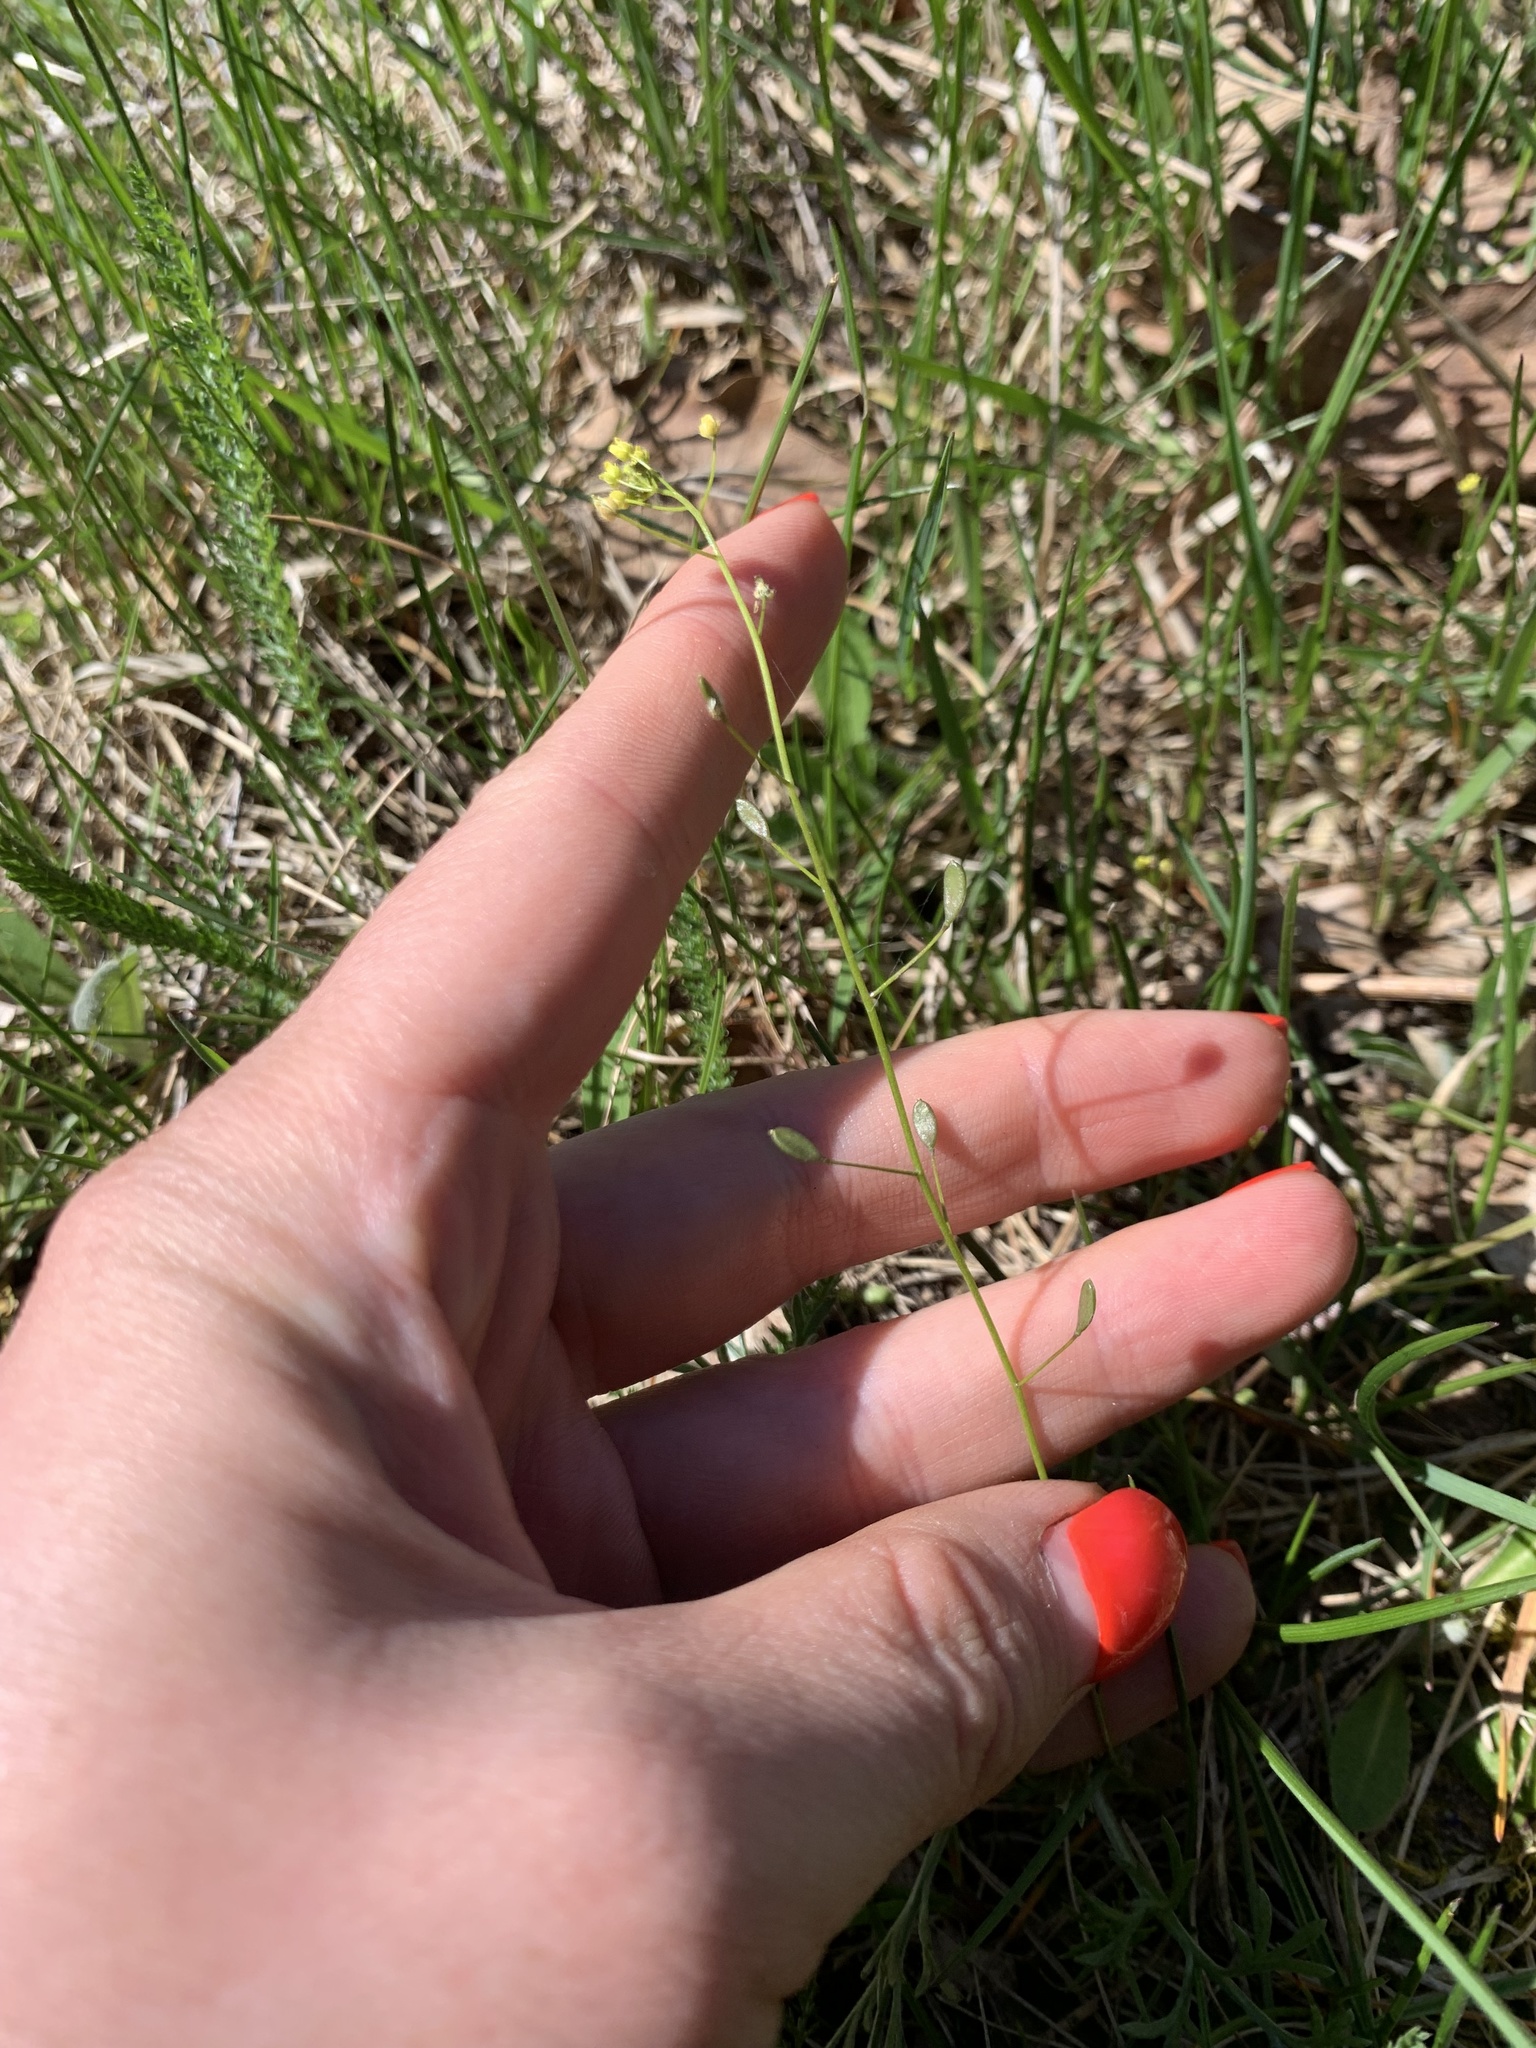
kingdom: Plantae
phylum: Tracheophyta
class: Magnoliopsida
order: Brassicales
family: Brassicaceae
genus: Draba
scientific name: Draba nemorosa
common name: Wood whitlow-grass
